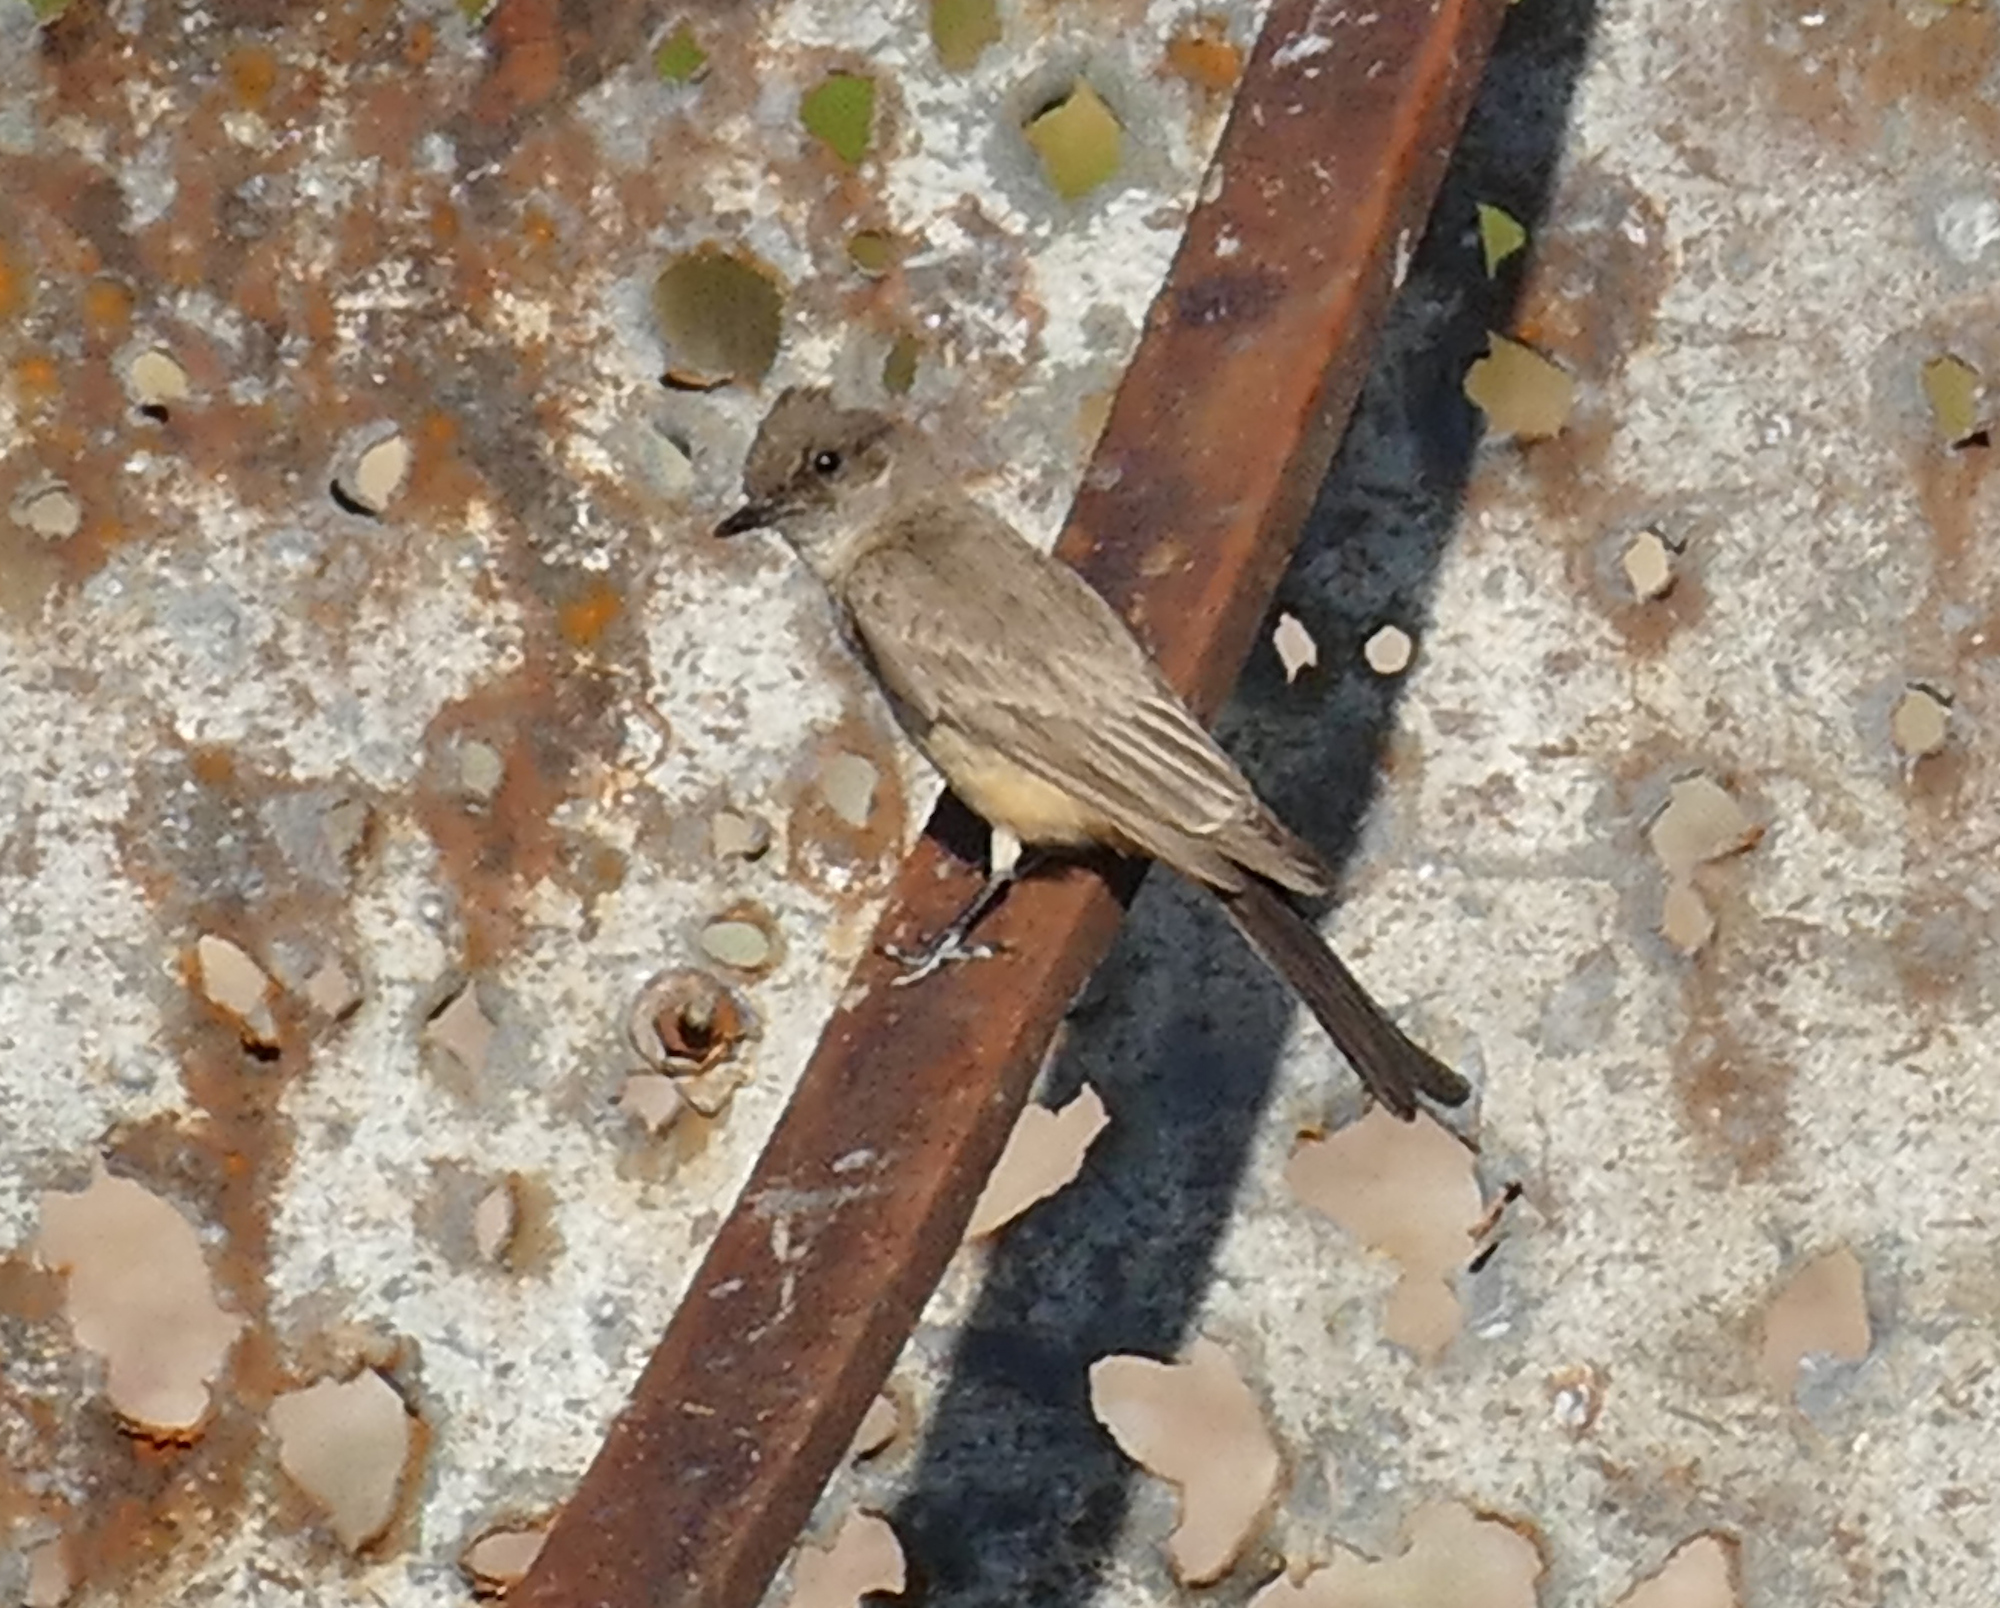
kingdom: Animalia
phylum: Chordata
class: Aves
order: Passeriformes
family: Tyrannidae
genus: Sayornis
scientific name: Sayornis saya
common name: Say's phoebe
